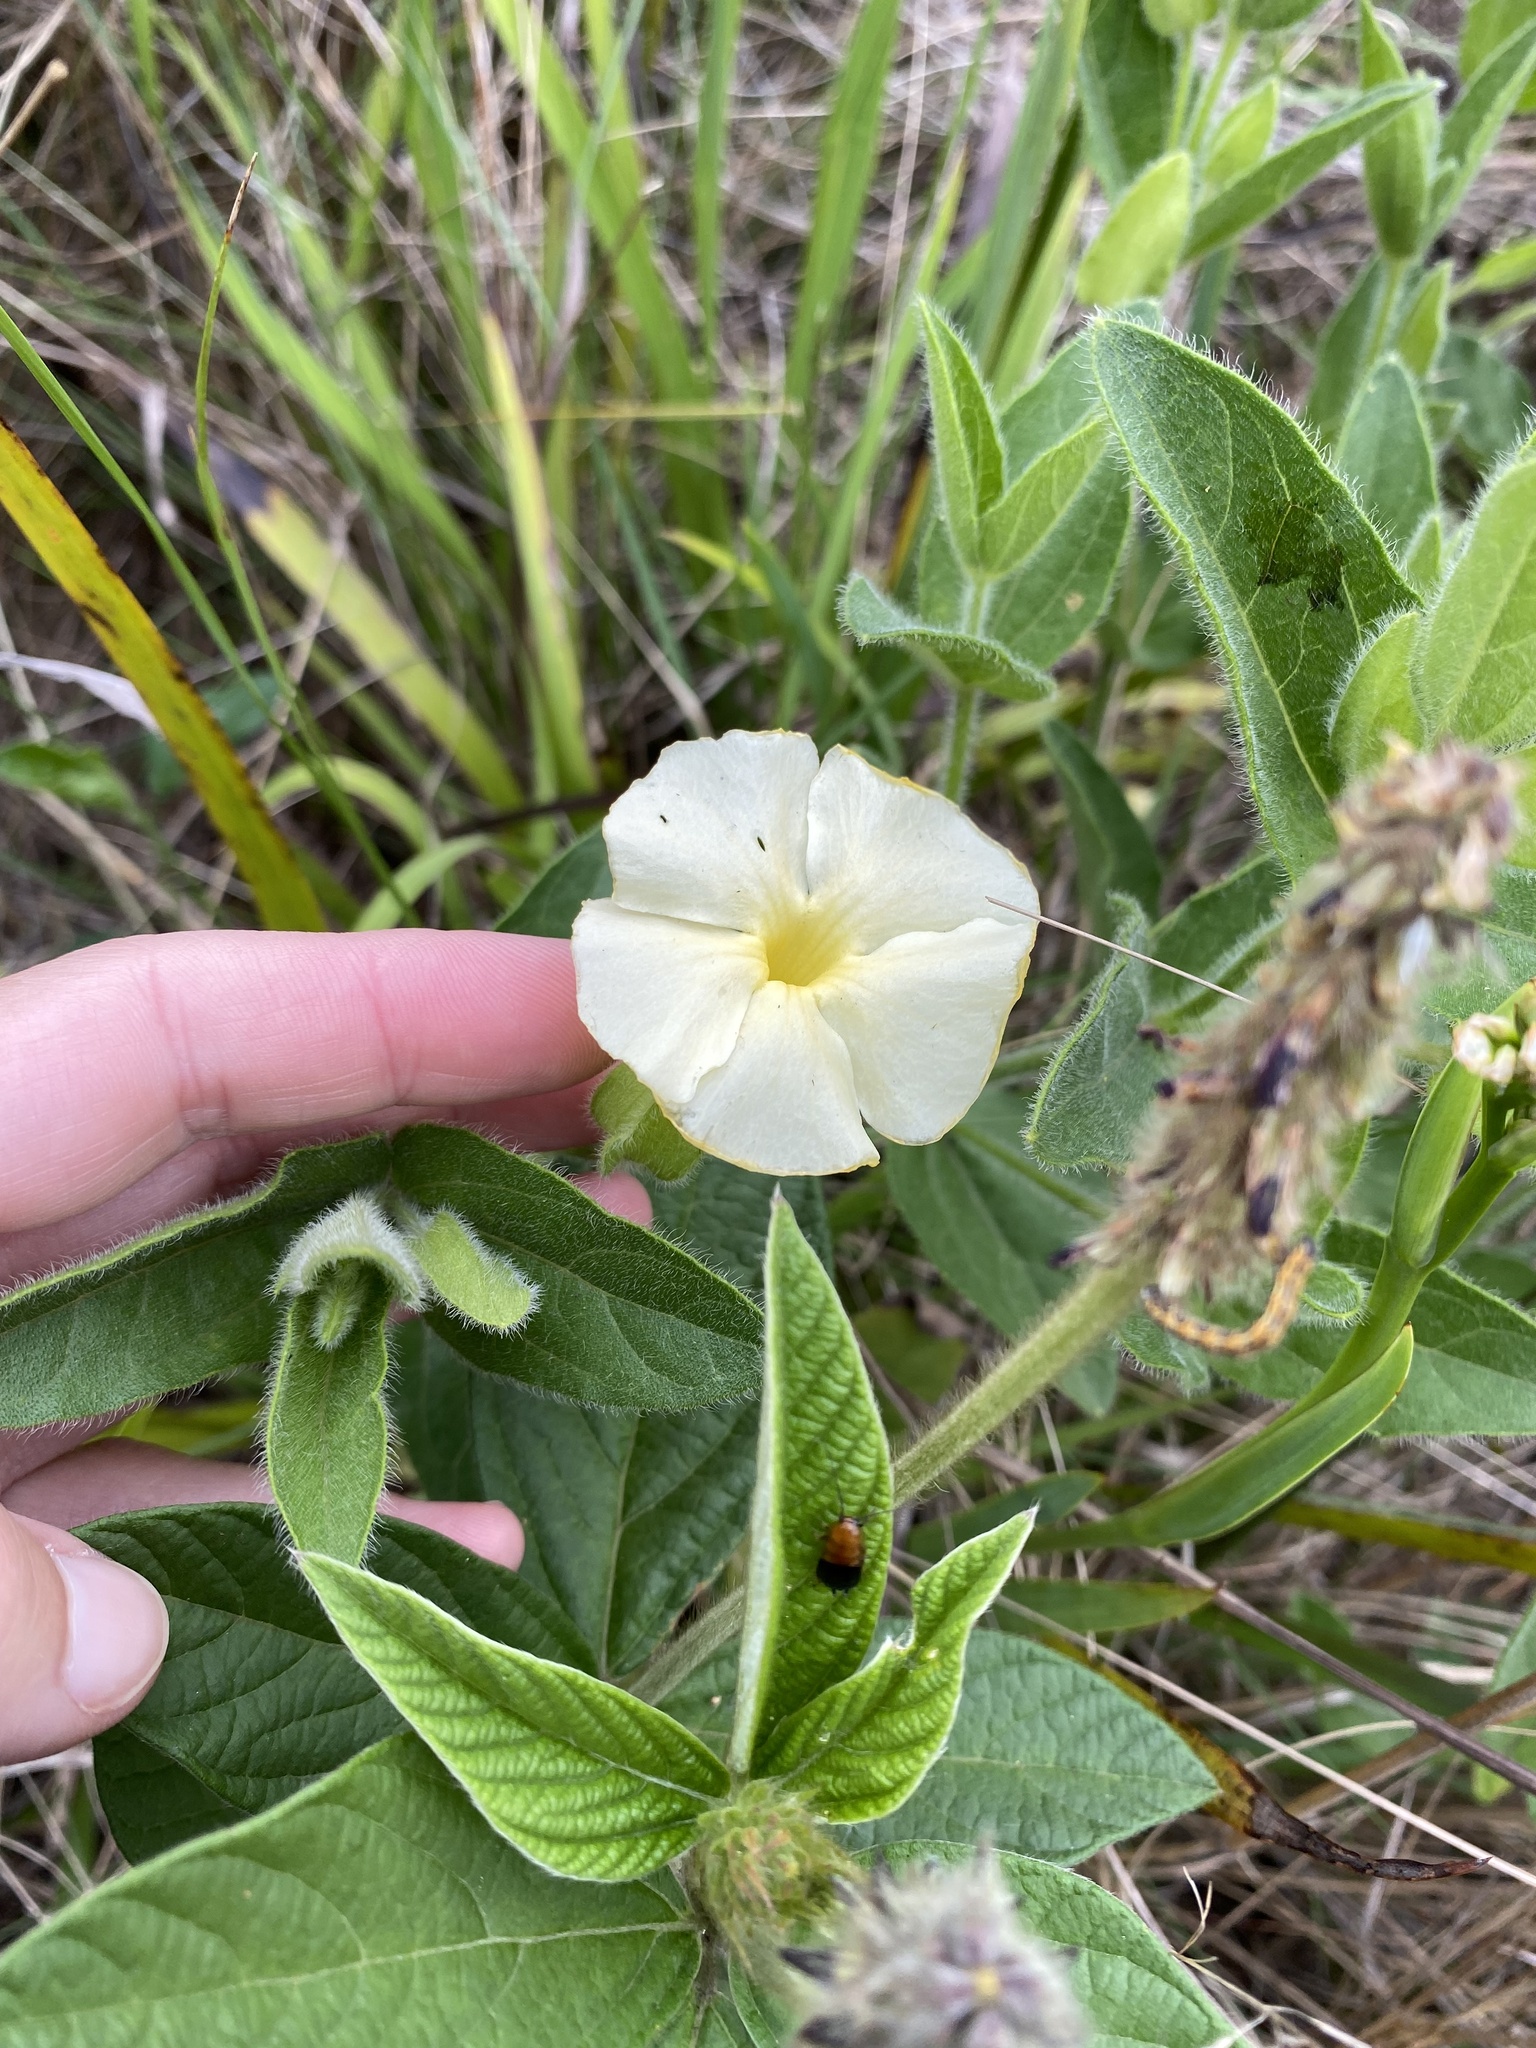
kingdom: Plantae
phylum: Tracheophyta
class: Magnoliopsida
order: Lamiales
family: Acanthaceae
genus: Thunbergia
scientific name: Thunbergia atriplicifolia
